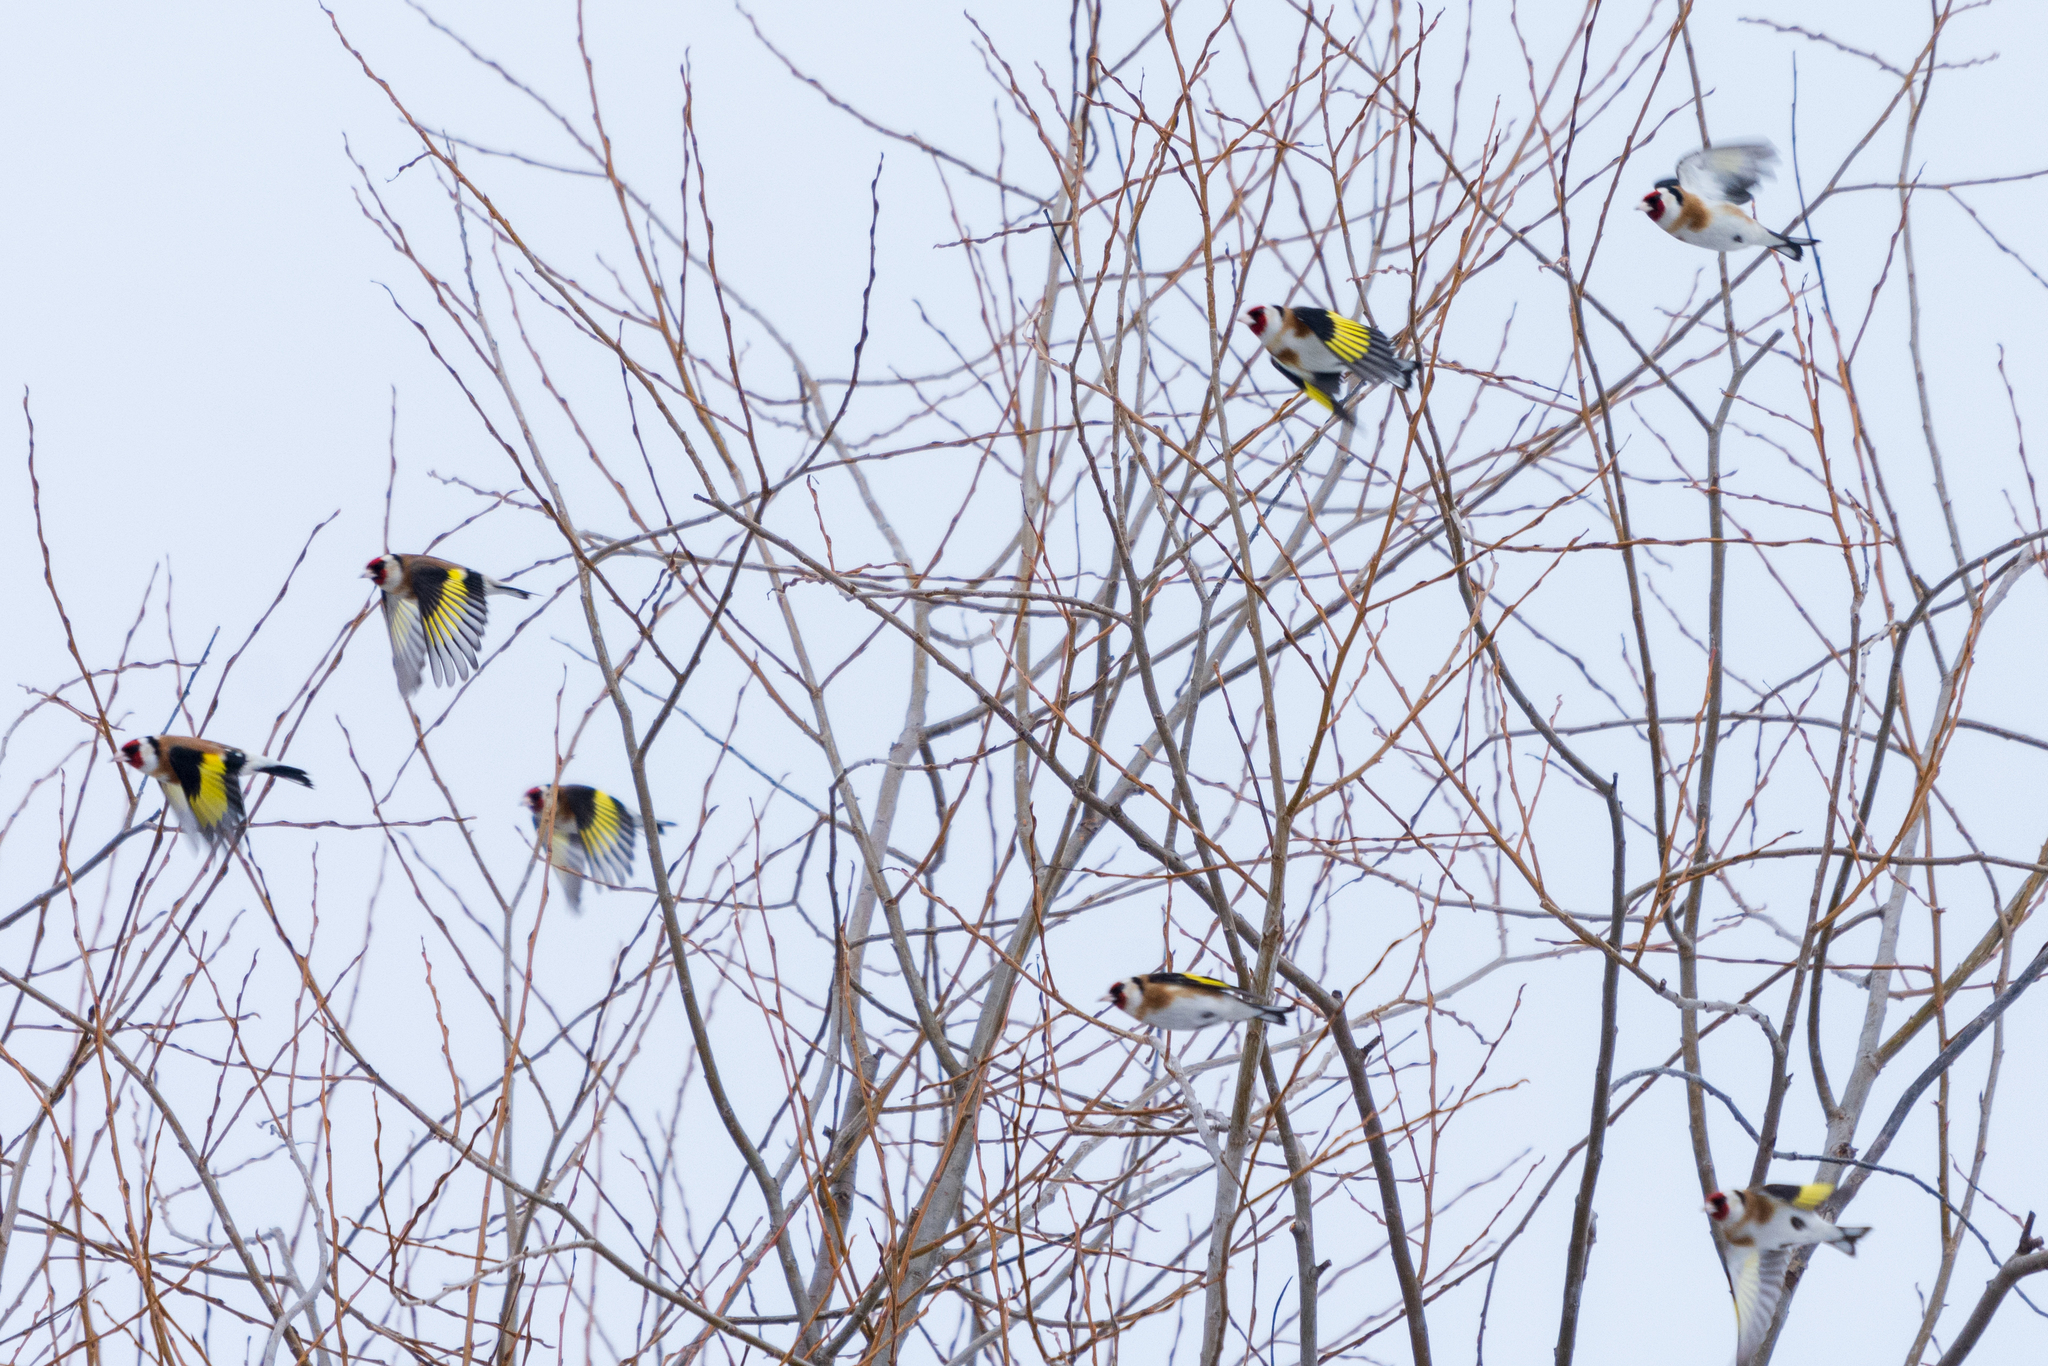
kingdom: Animalia
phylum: Chordata
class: Aves
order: Passeriformes
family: Fringillidae
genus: Carduelis
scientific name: Carduelis carduelis
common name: European goldfinch
